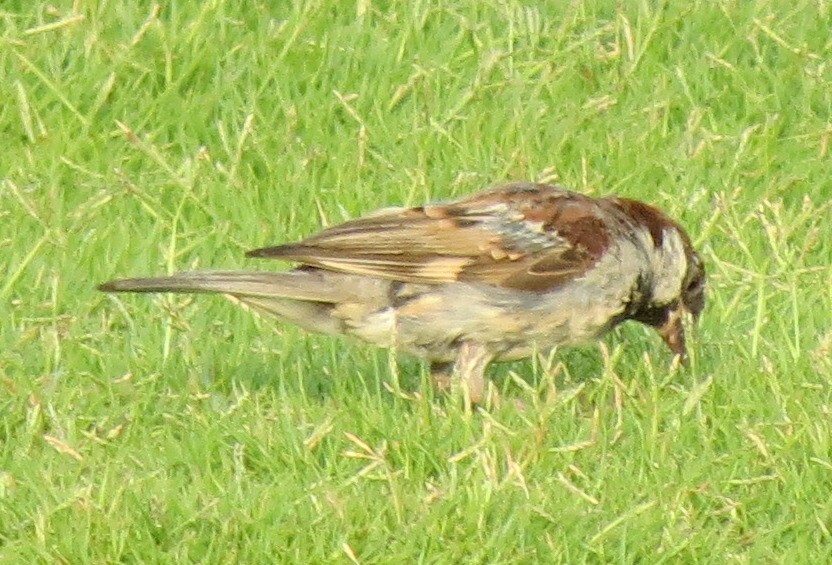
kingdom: Animalia
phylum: Chordata
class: Aves
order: Passeriformes
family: Passeridae
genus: Passer
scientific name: Passer domesticus
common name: House sparrow
